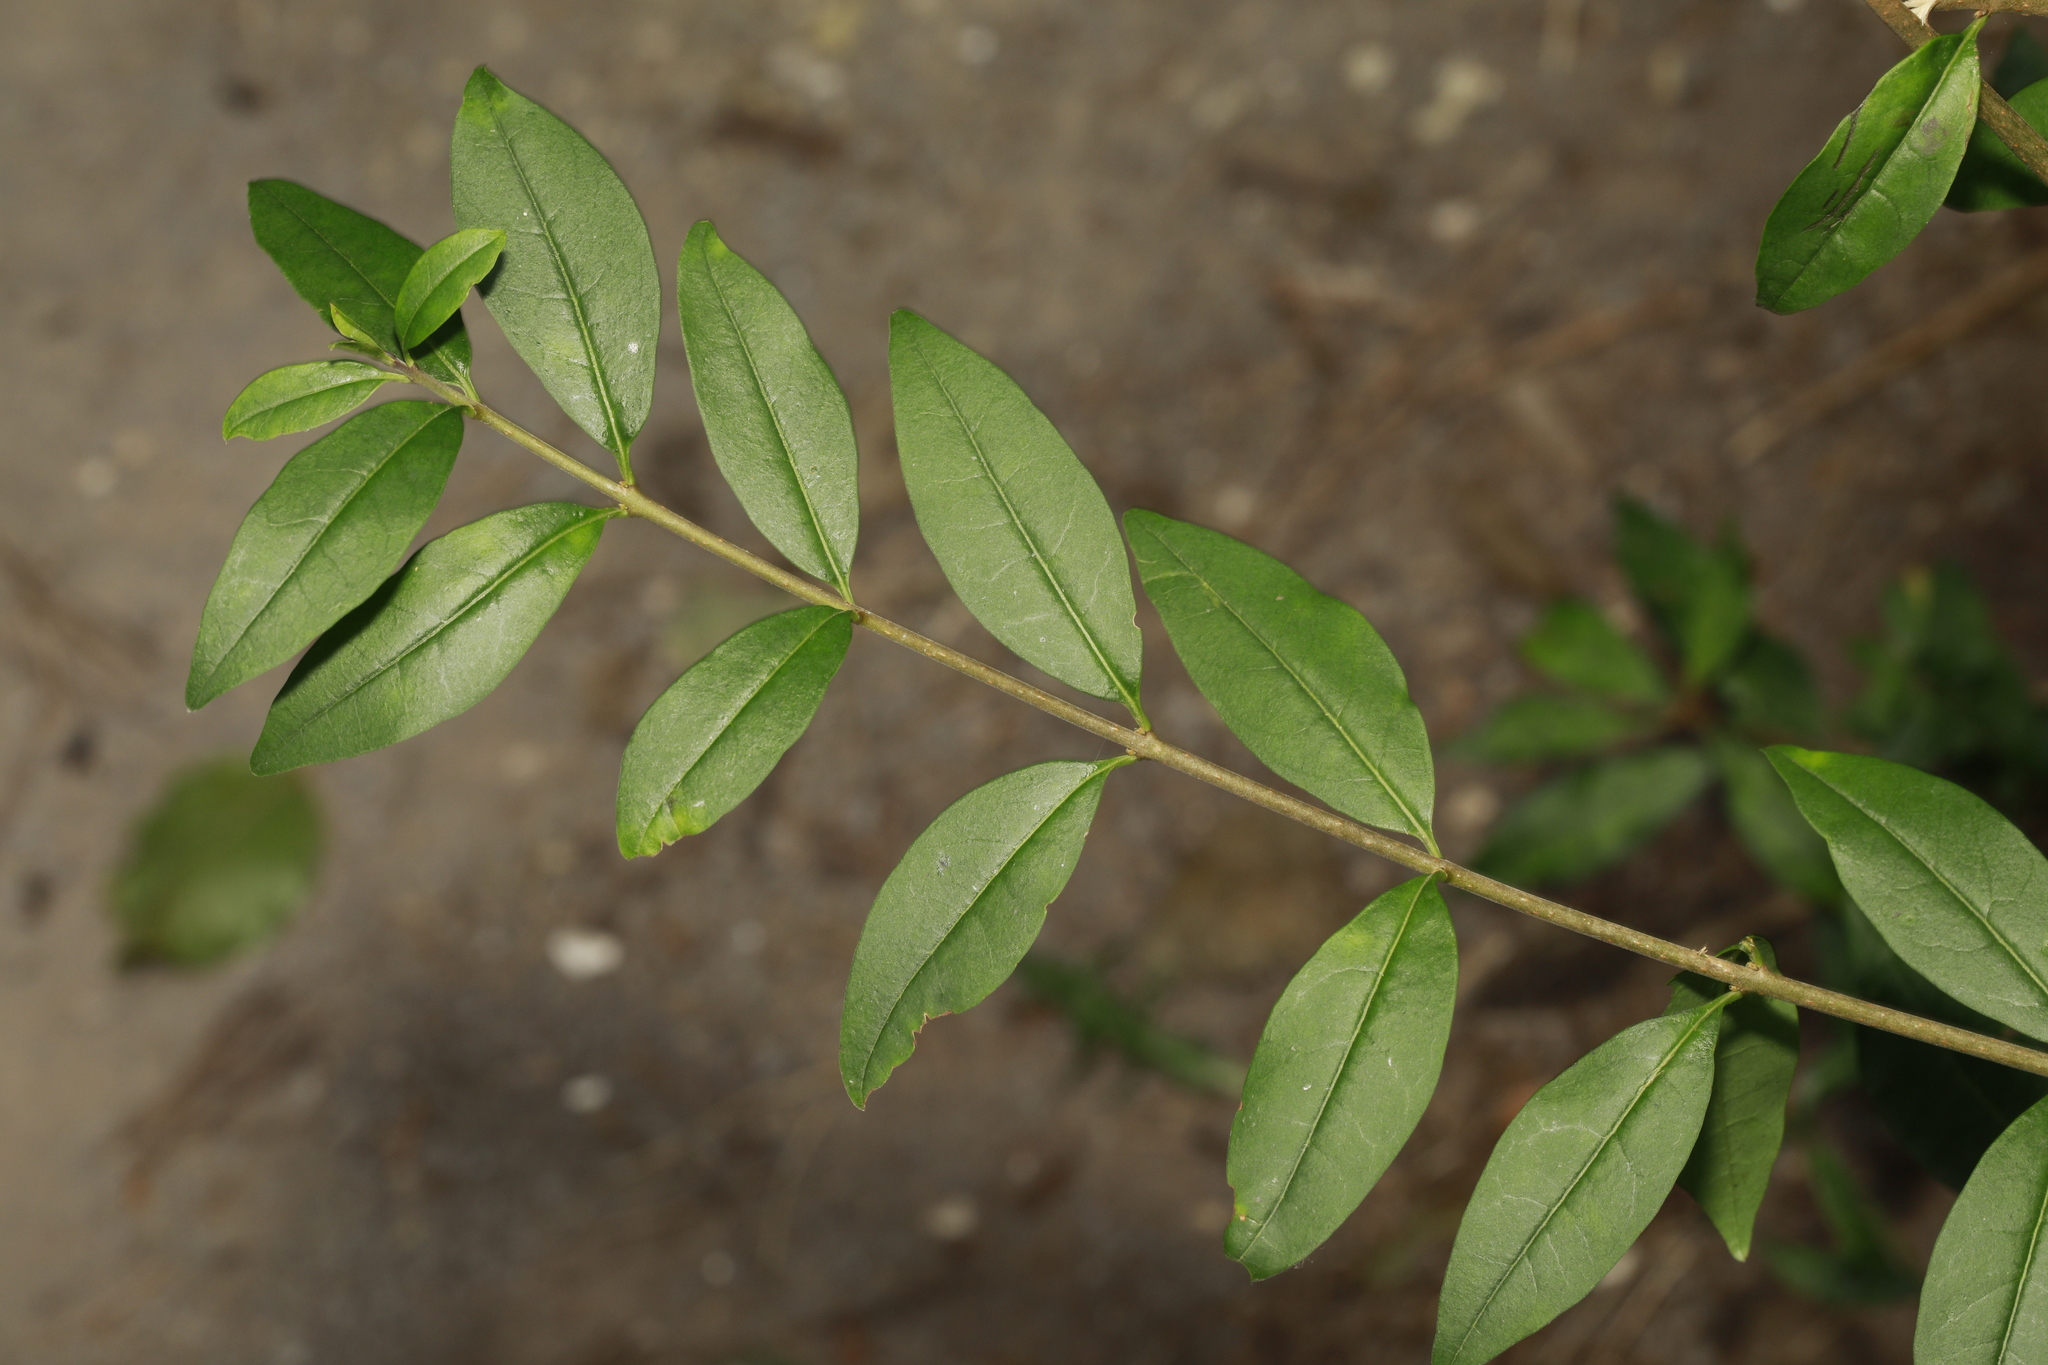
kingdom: Plantae
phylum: Tracheophyta
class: Magnoliopsida
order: Lamiales
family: Oleaceae
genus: Ligustrum
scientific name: Ligustrum vulgare
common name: Wild privet
